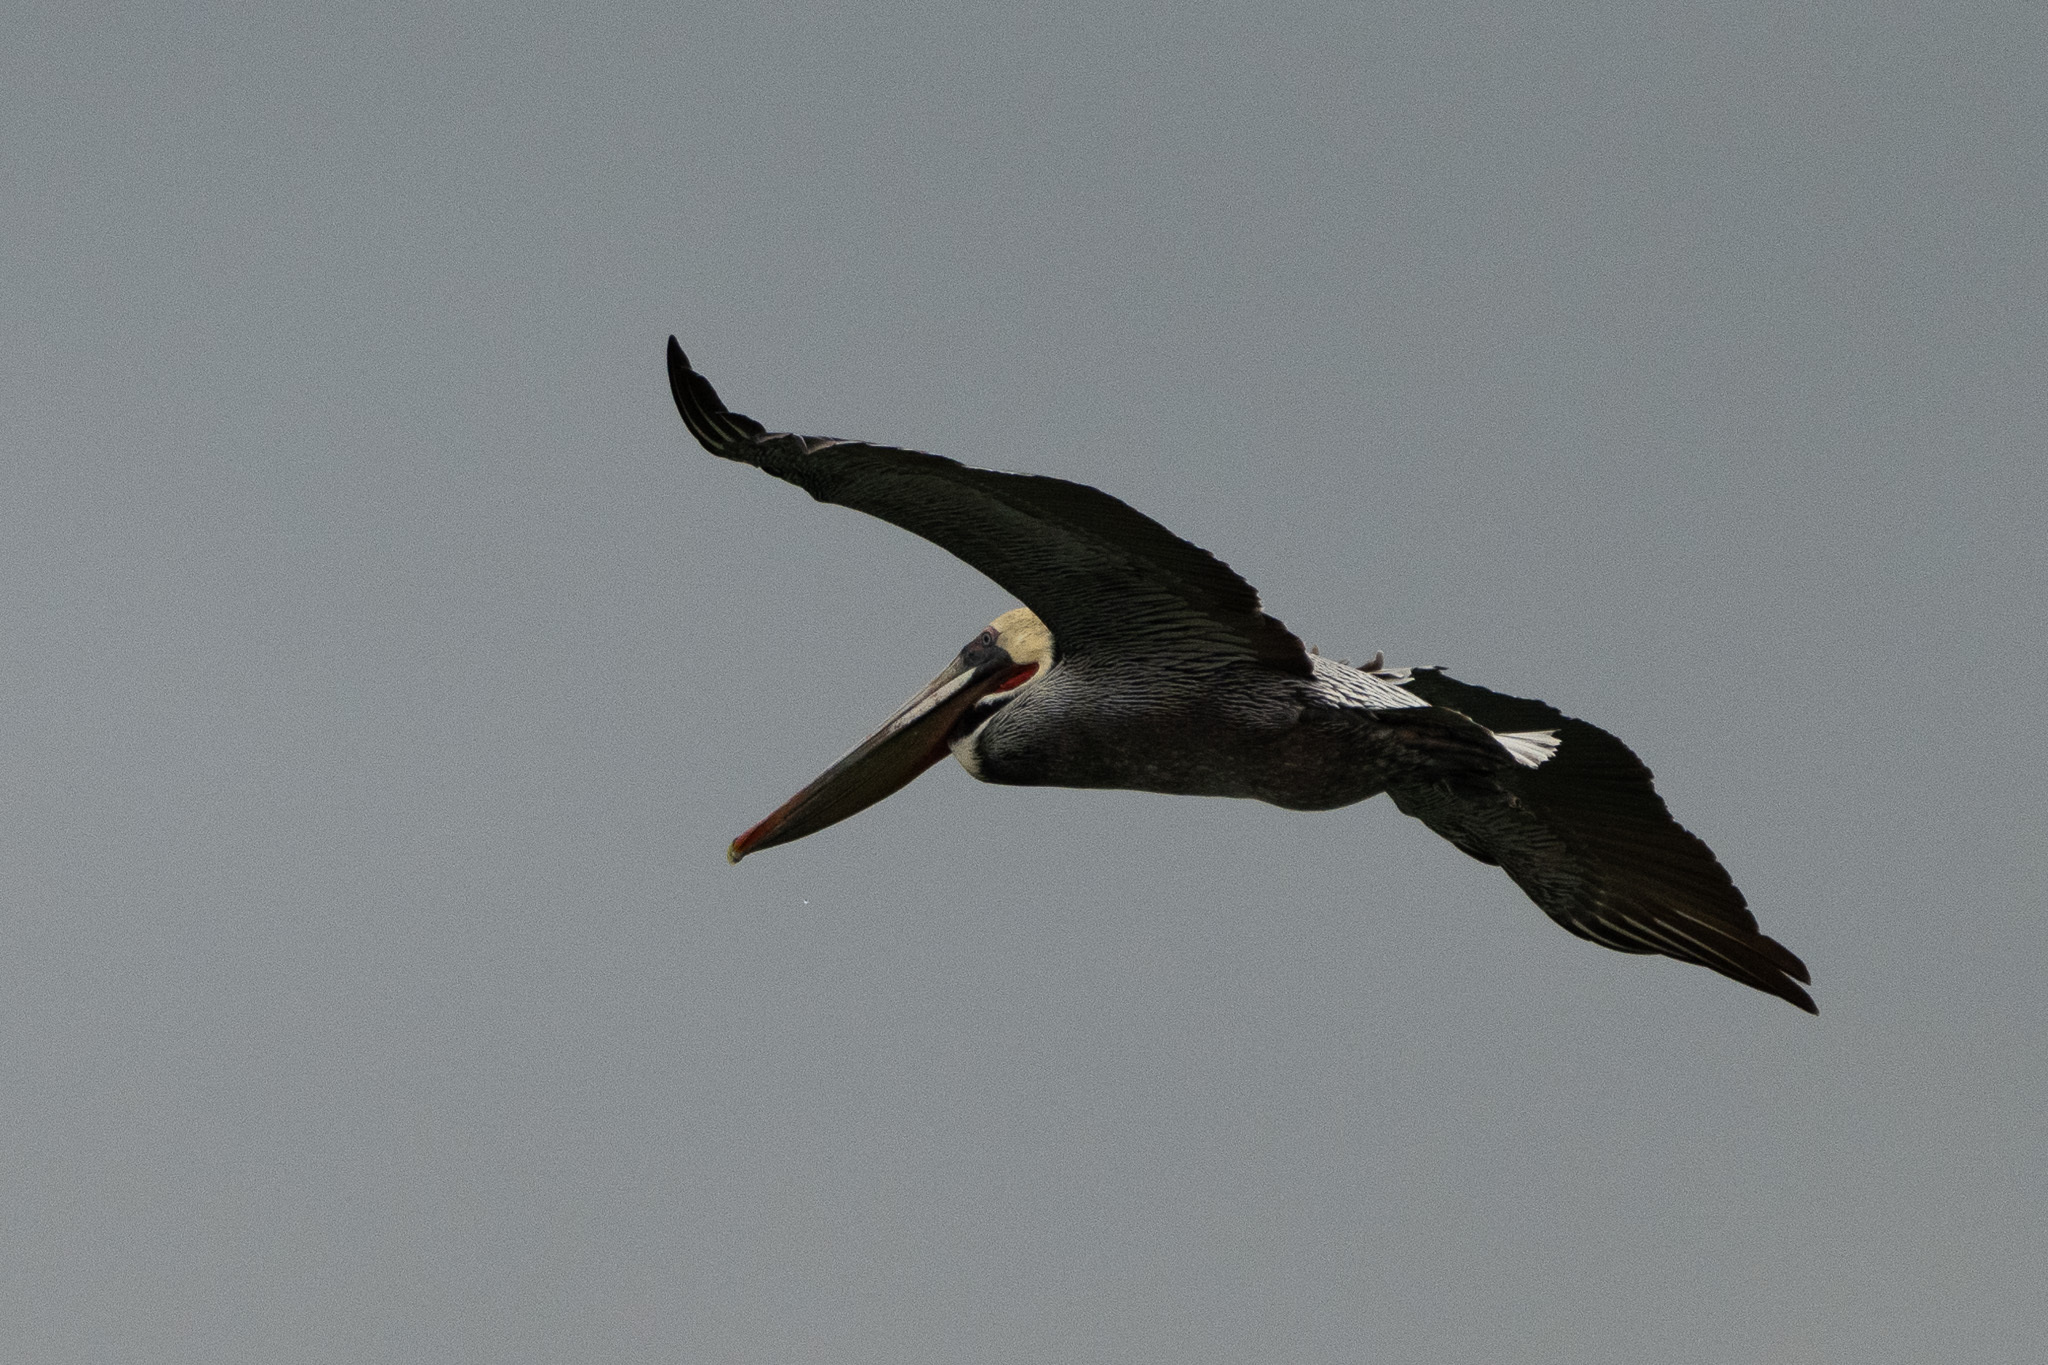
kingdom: Animalia
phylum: Chordata
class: Aves
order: Pelecaniformes
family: Pelecanidae
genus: Pelecanus
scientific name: Pelecanus occidentalis
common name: Brown pelican
